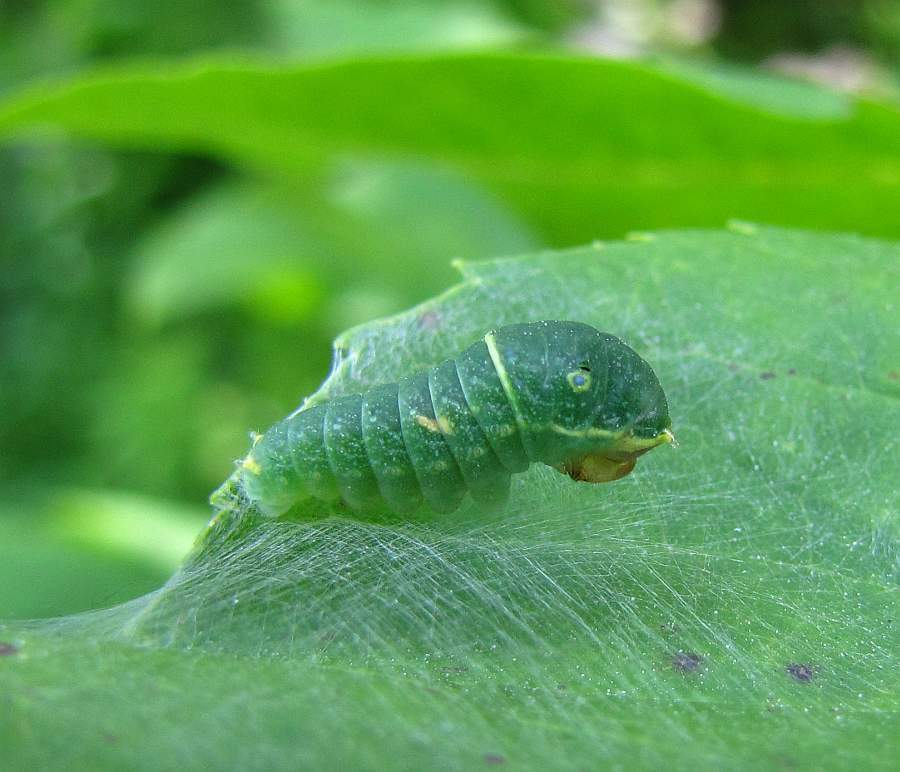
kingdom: Animalia
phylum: Arthropoda
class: Insecta
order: Lepidoptera
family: Papilionidae
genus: Papilio
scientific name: Papilio canadensis
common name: Canadian tiger swallowtail
